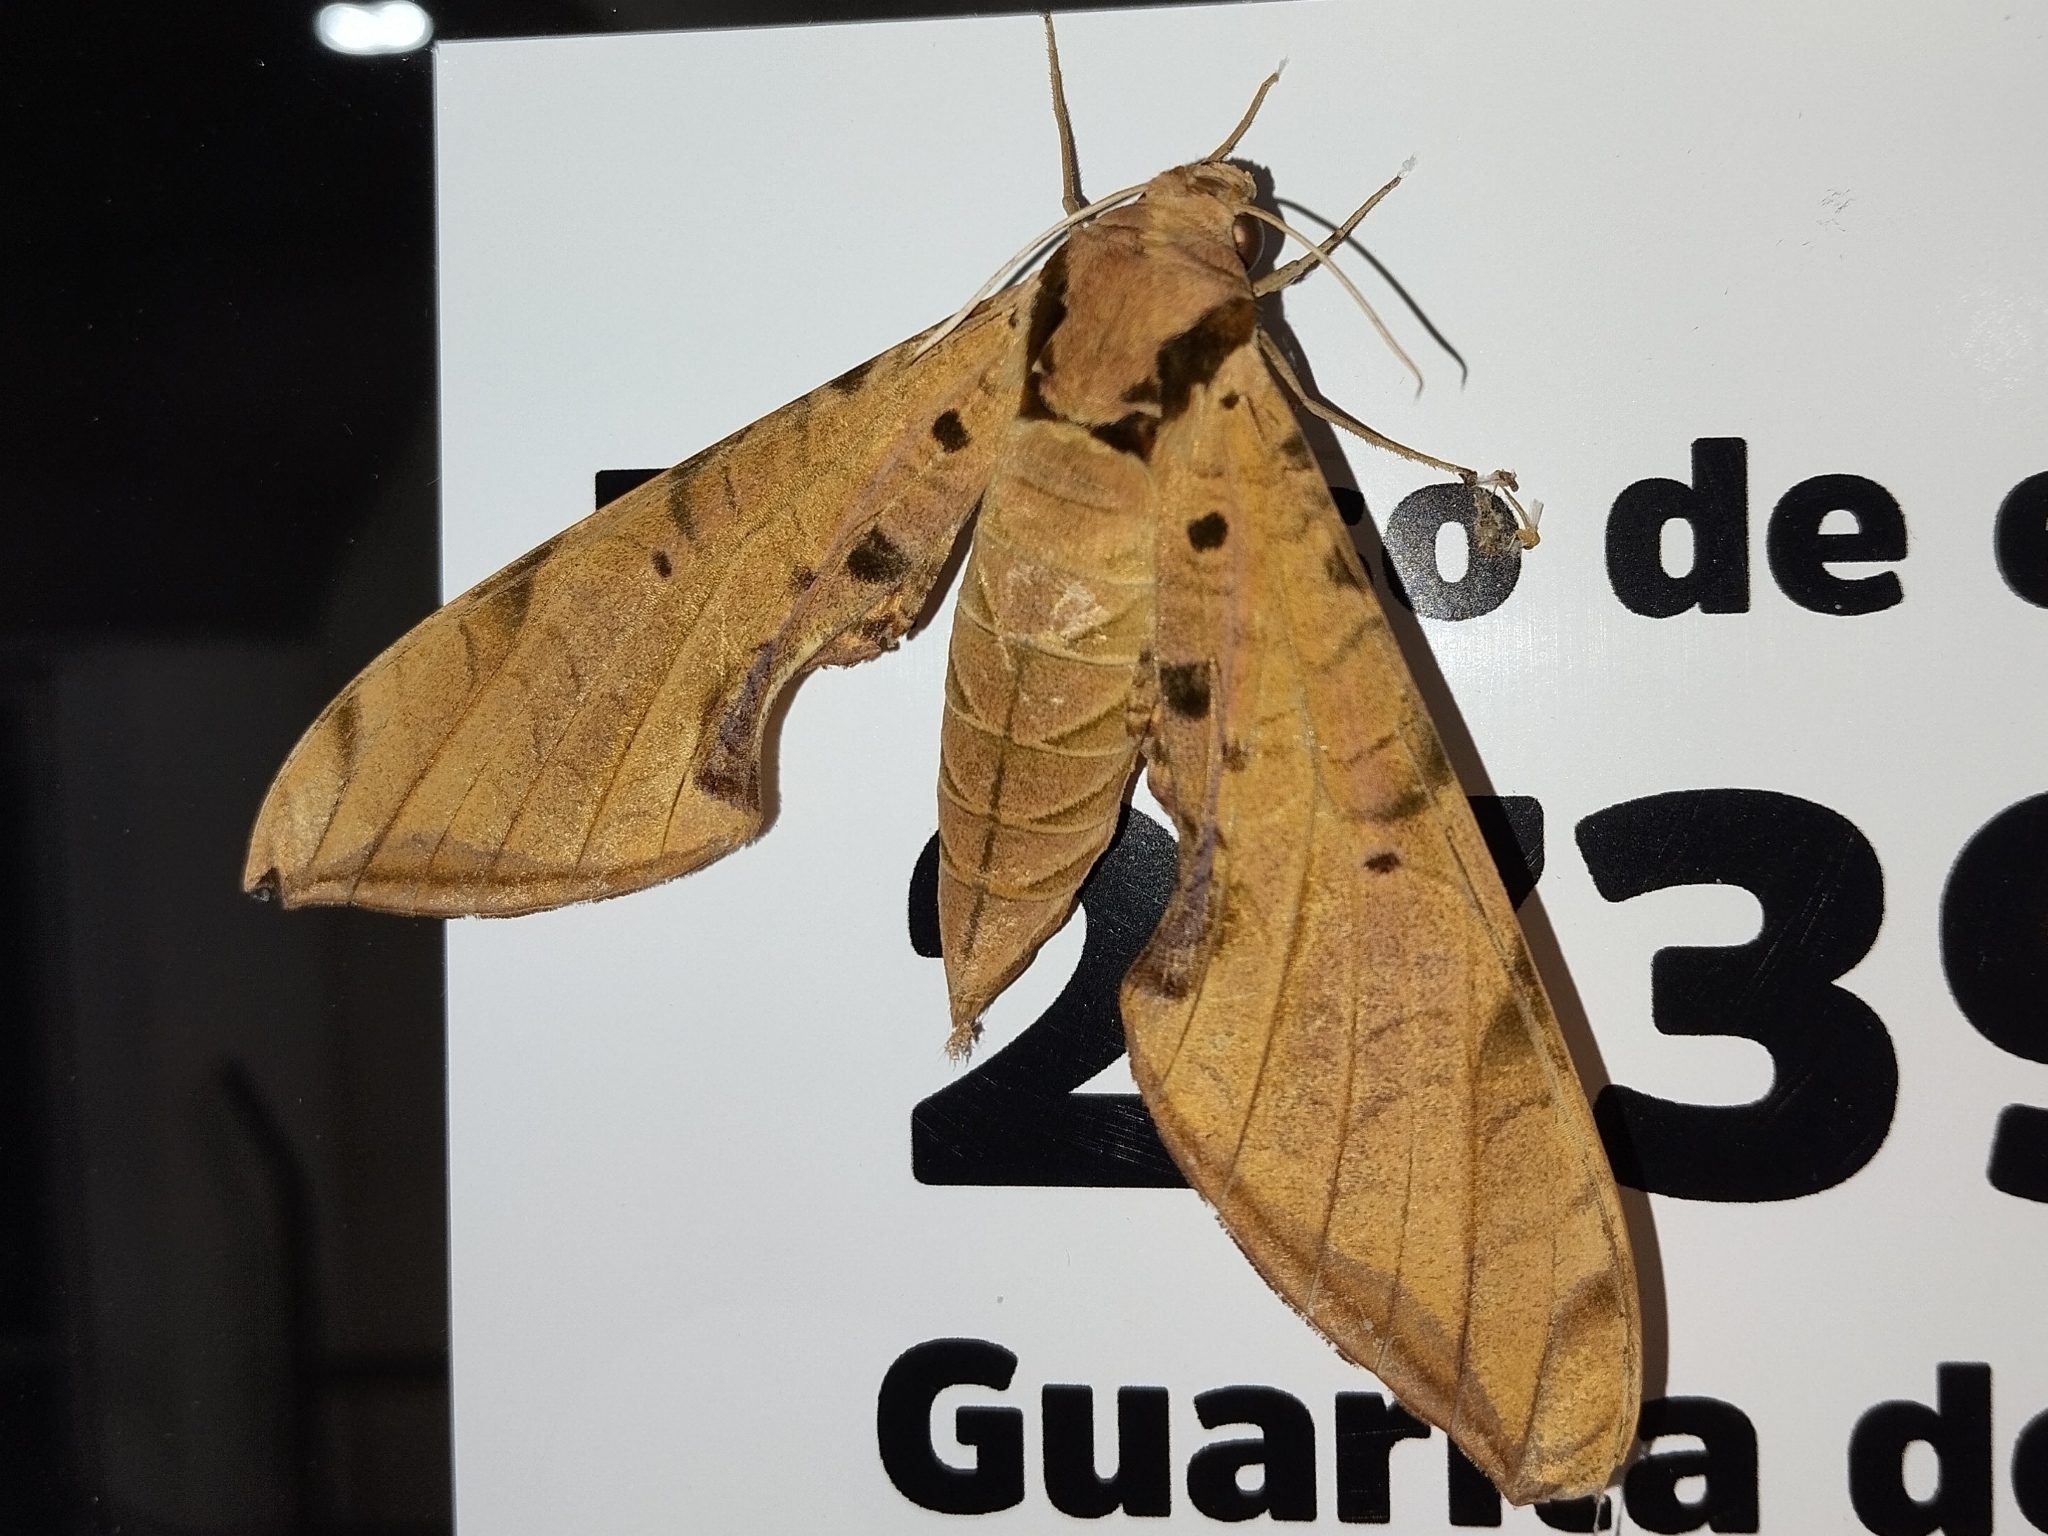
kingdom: Animalia
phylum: Arthropoda
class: Insecta
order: Lepidoptera
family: Sphingidae
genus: Protambulyx
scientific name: Protambulyx strigilis
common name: Streaked sphinx
